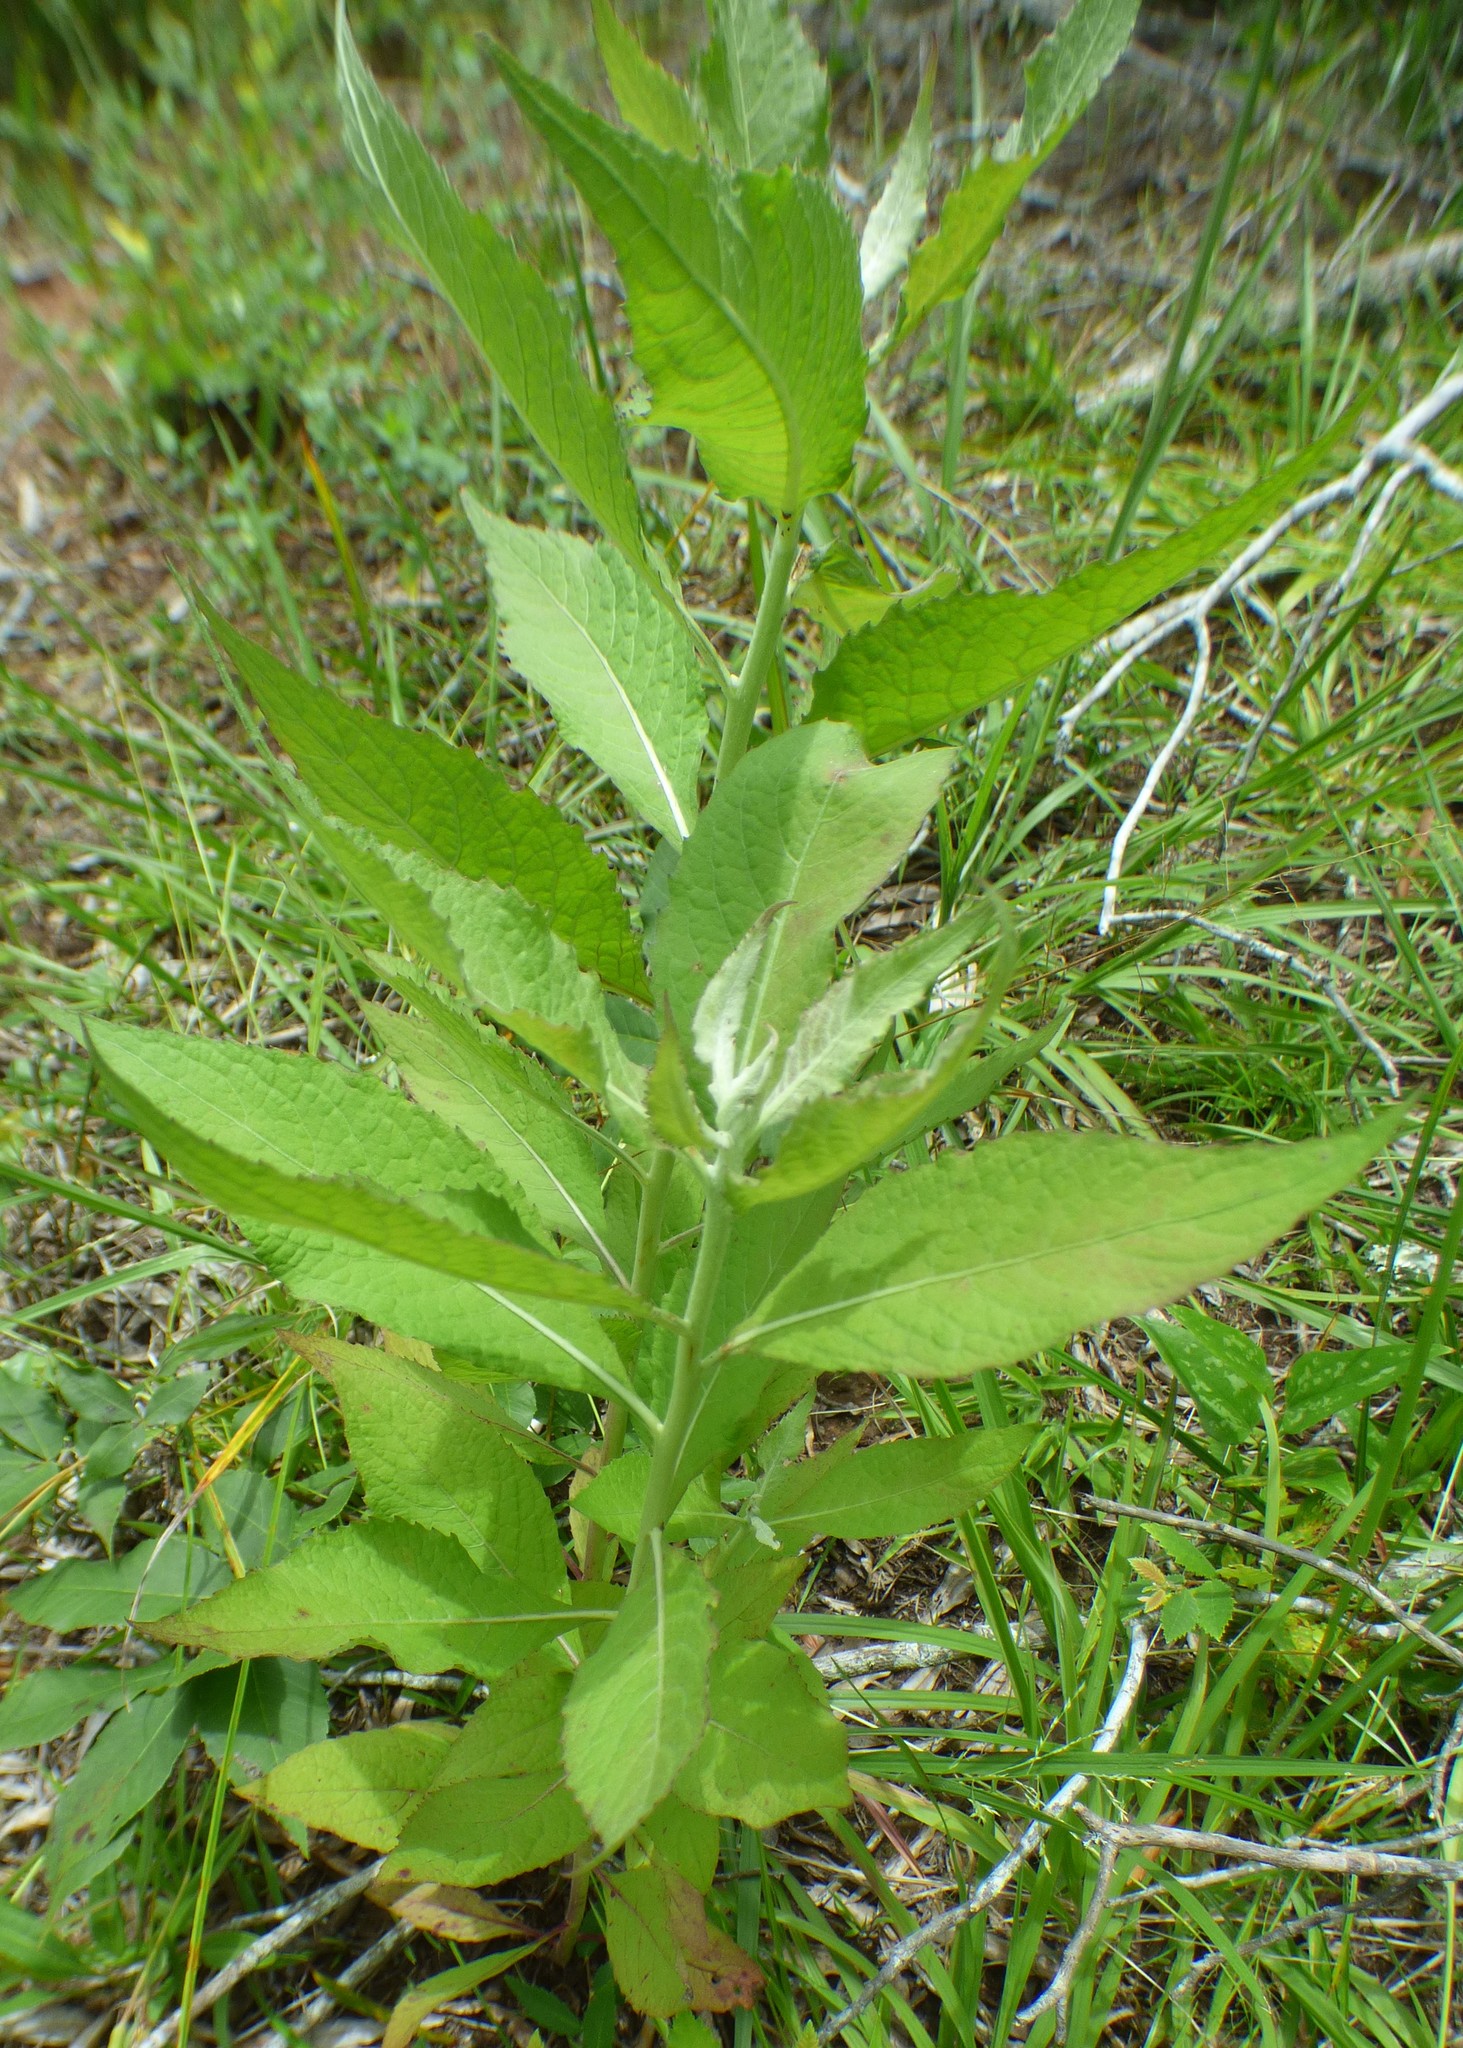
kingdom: Plantae
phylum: Tracheophyta
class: Magnoliopsida
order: Asterales
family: Asteraceae
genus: Pluchea
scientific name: Pluchea camphorata
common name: Camphor pluchea
